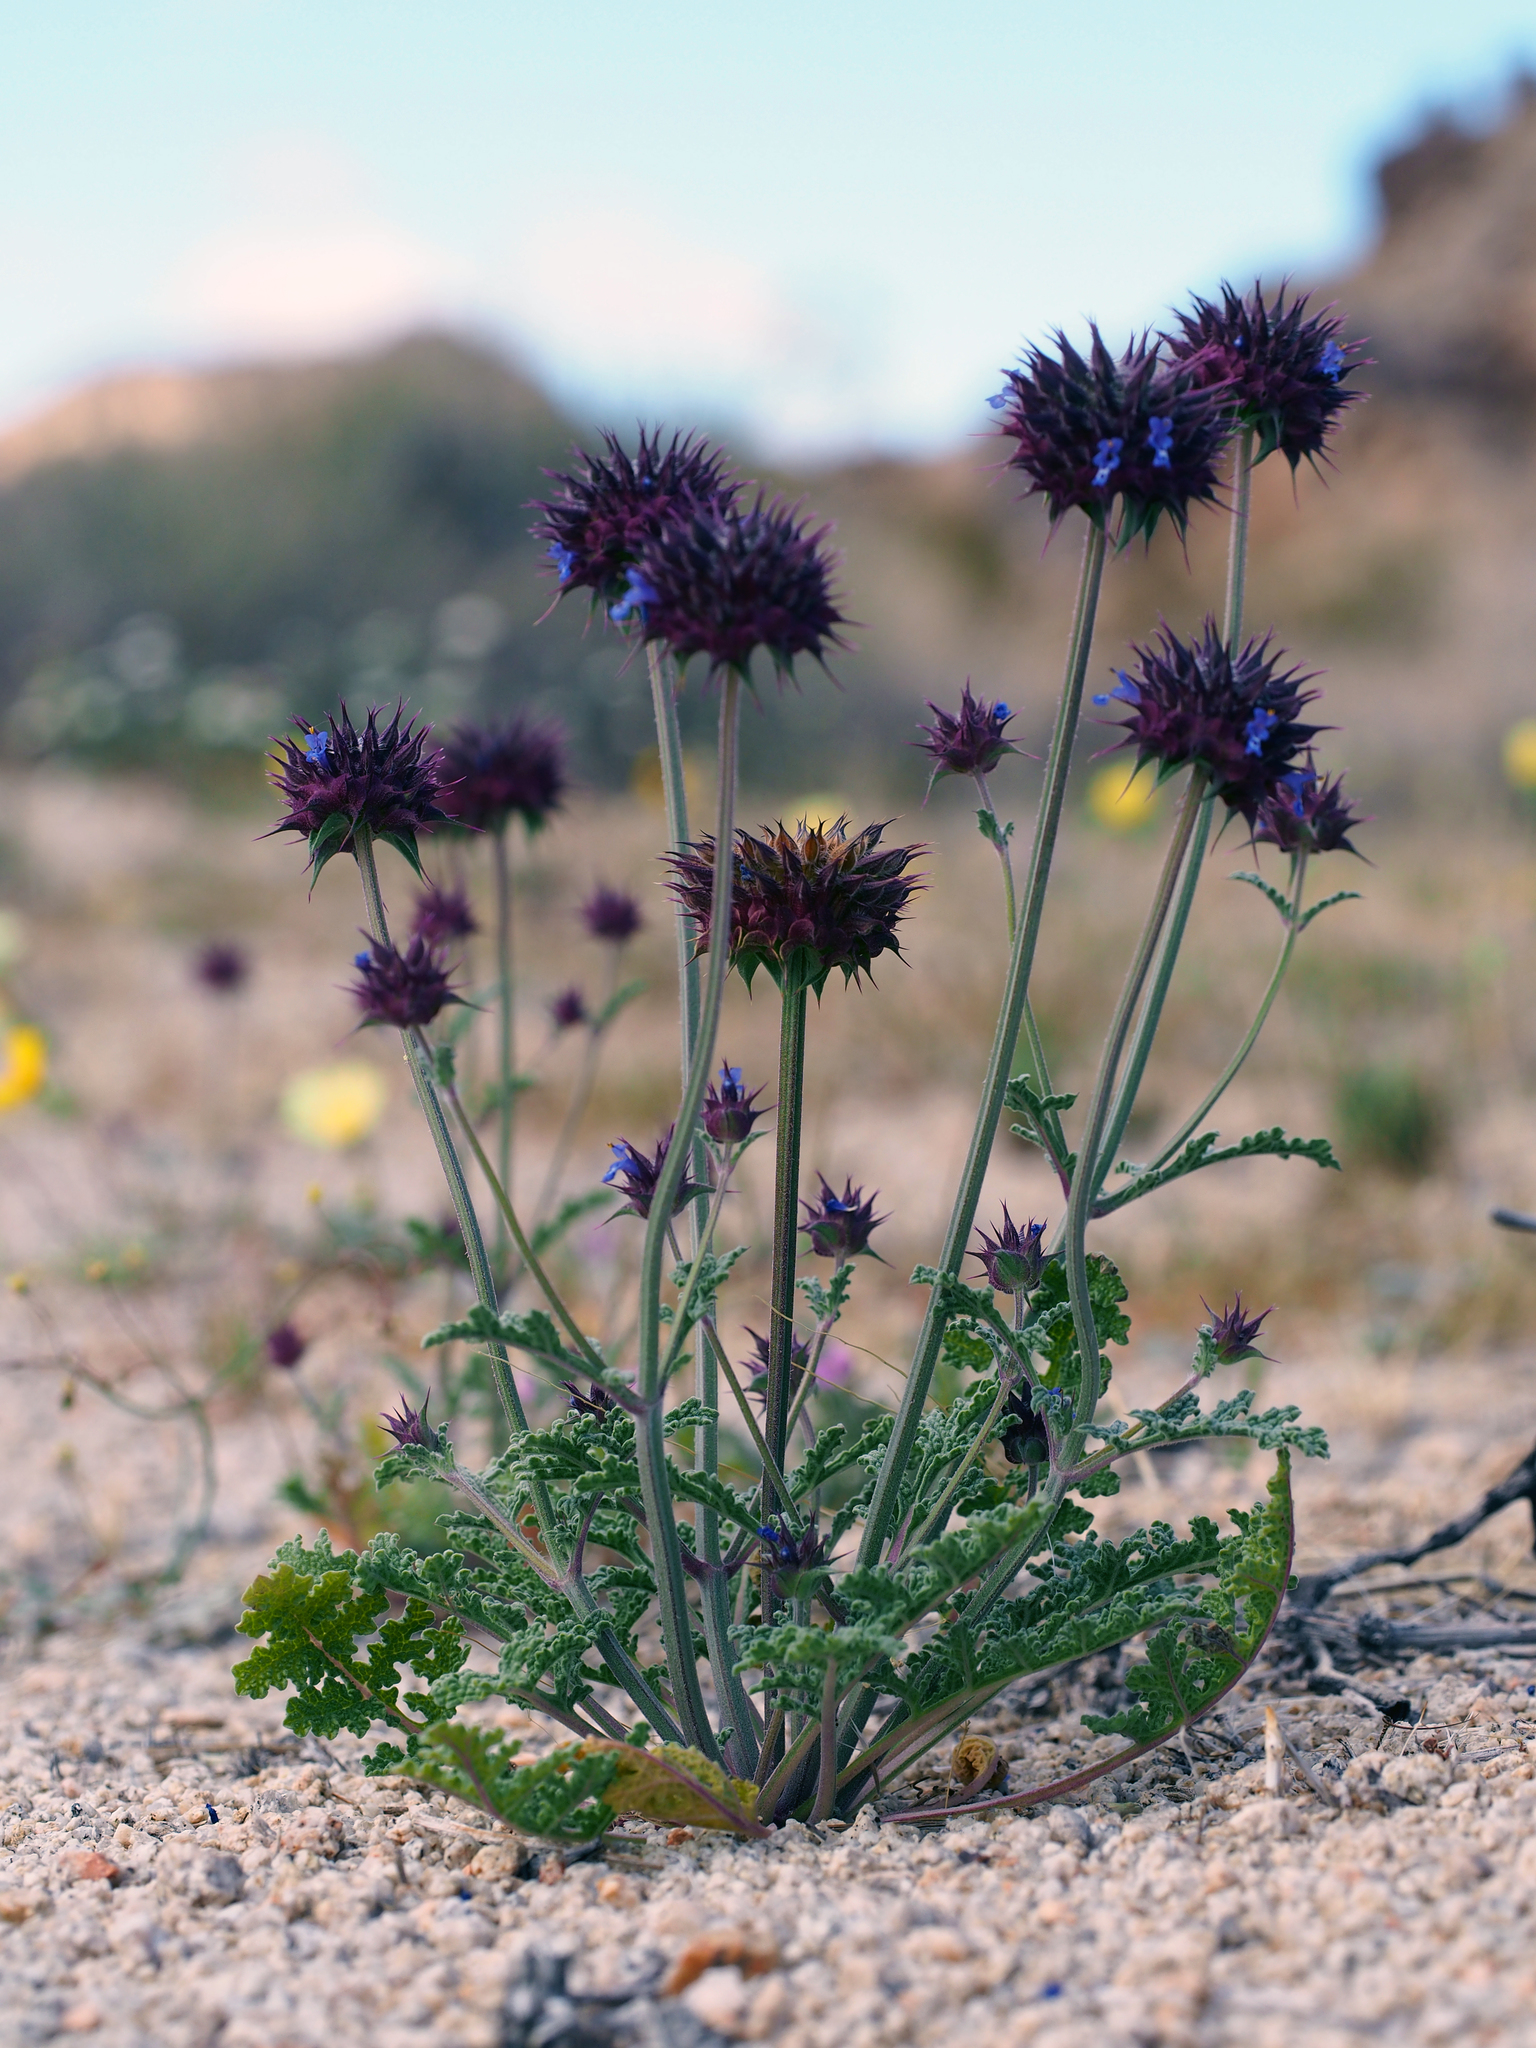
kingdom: Plantae
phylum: Tracheophyta
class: Magnoliopsida
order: Lamiales
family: Lamiaceae
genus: Salvia
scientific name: Salvia columbariae
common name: Chia
